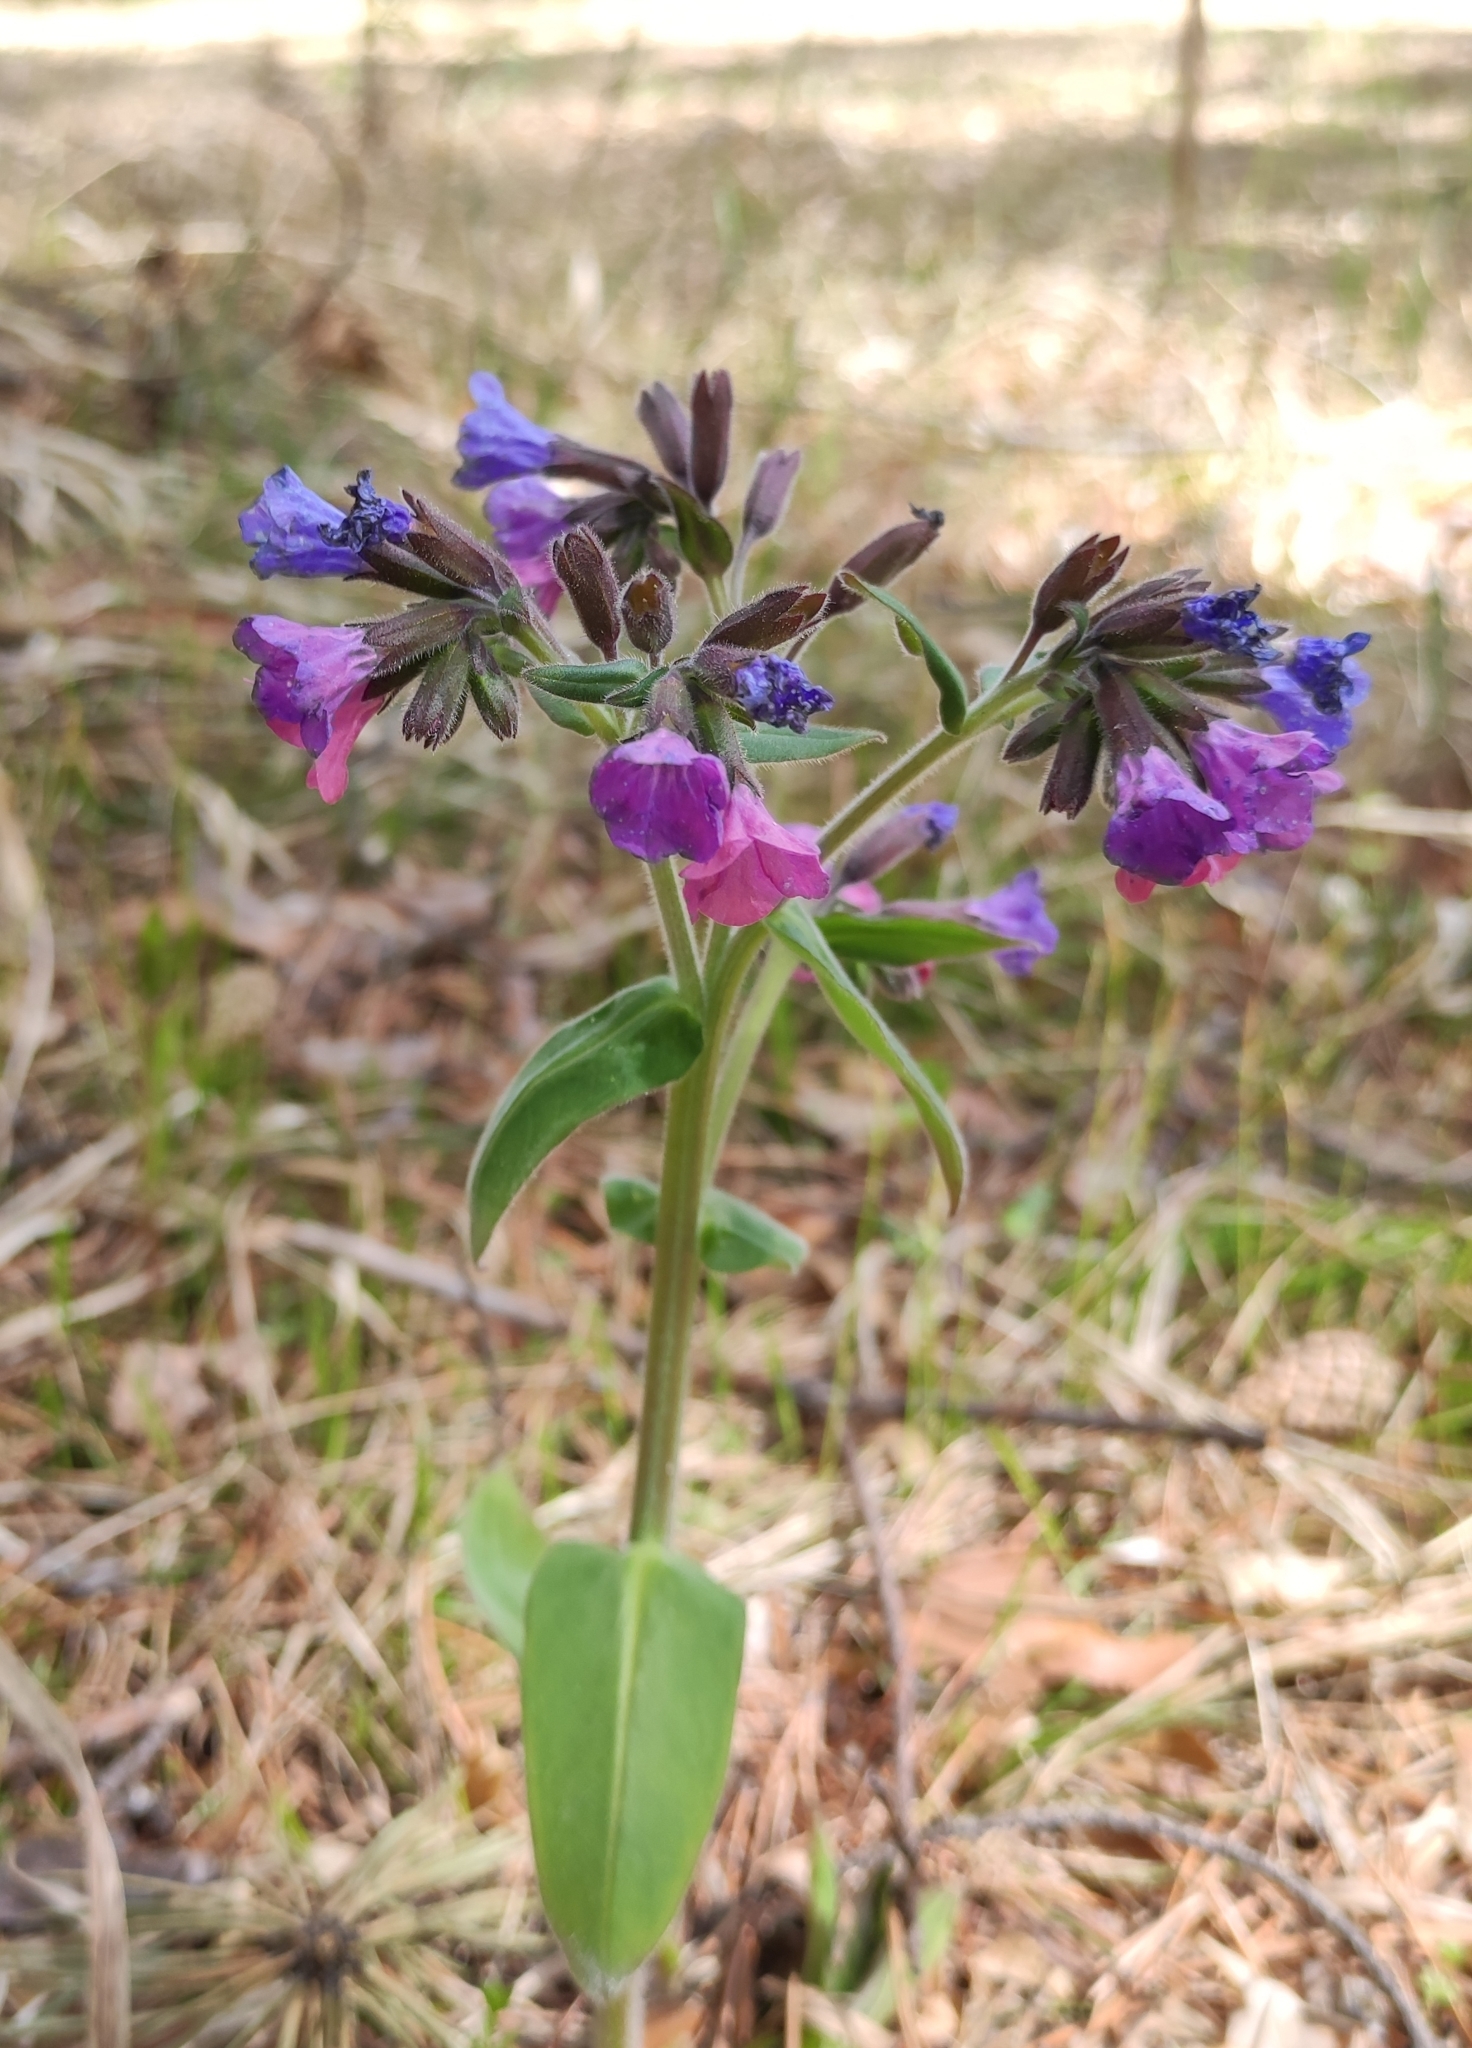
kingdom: Plantae
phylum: Tracheophyta
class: Magnoliopsida
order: Boraginales
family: Boraginaceae
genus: Pulmonaria
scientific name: Pulmonaria mollis
